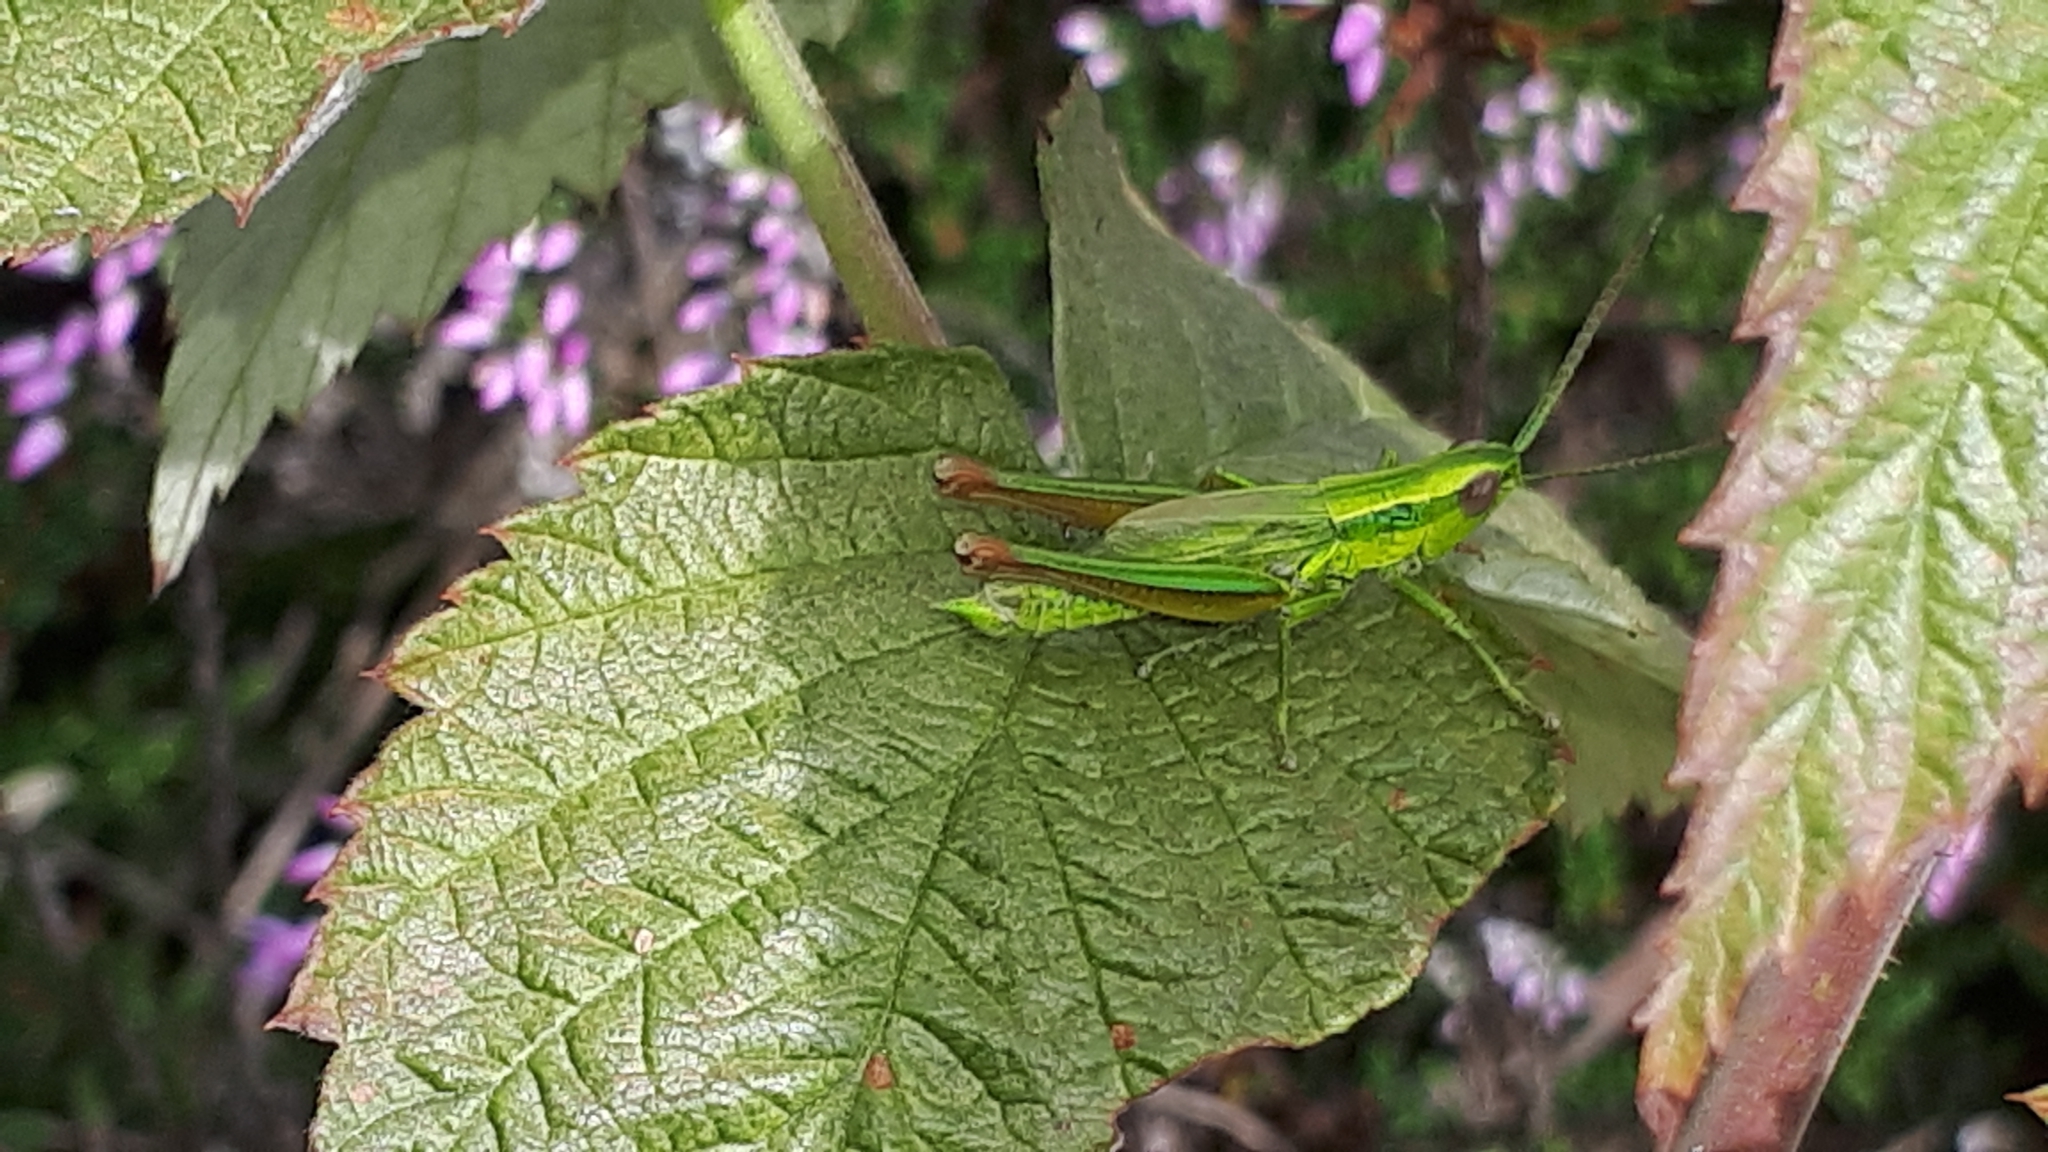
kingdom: Animalia
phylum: Arthropoda
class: Insecta
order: Orthoptera
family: Acrididae
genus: Euthystira
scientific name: Euthystira brachyptera
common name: Small gold grasshopper
